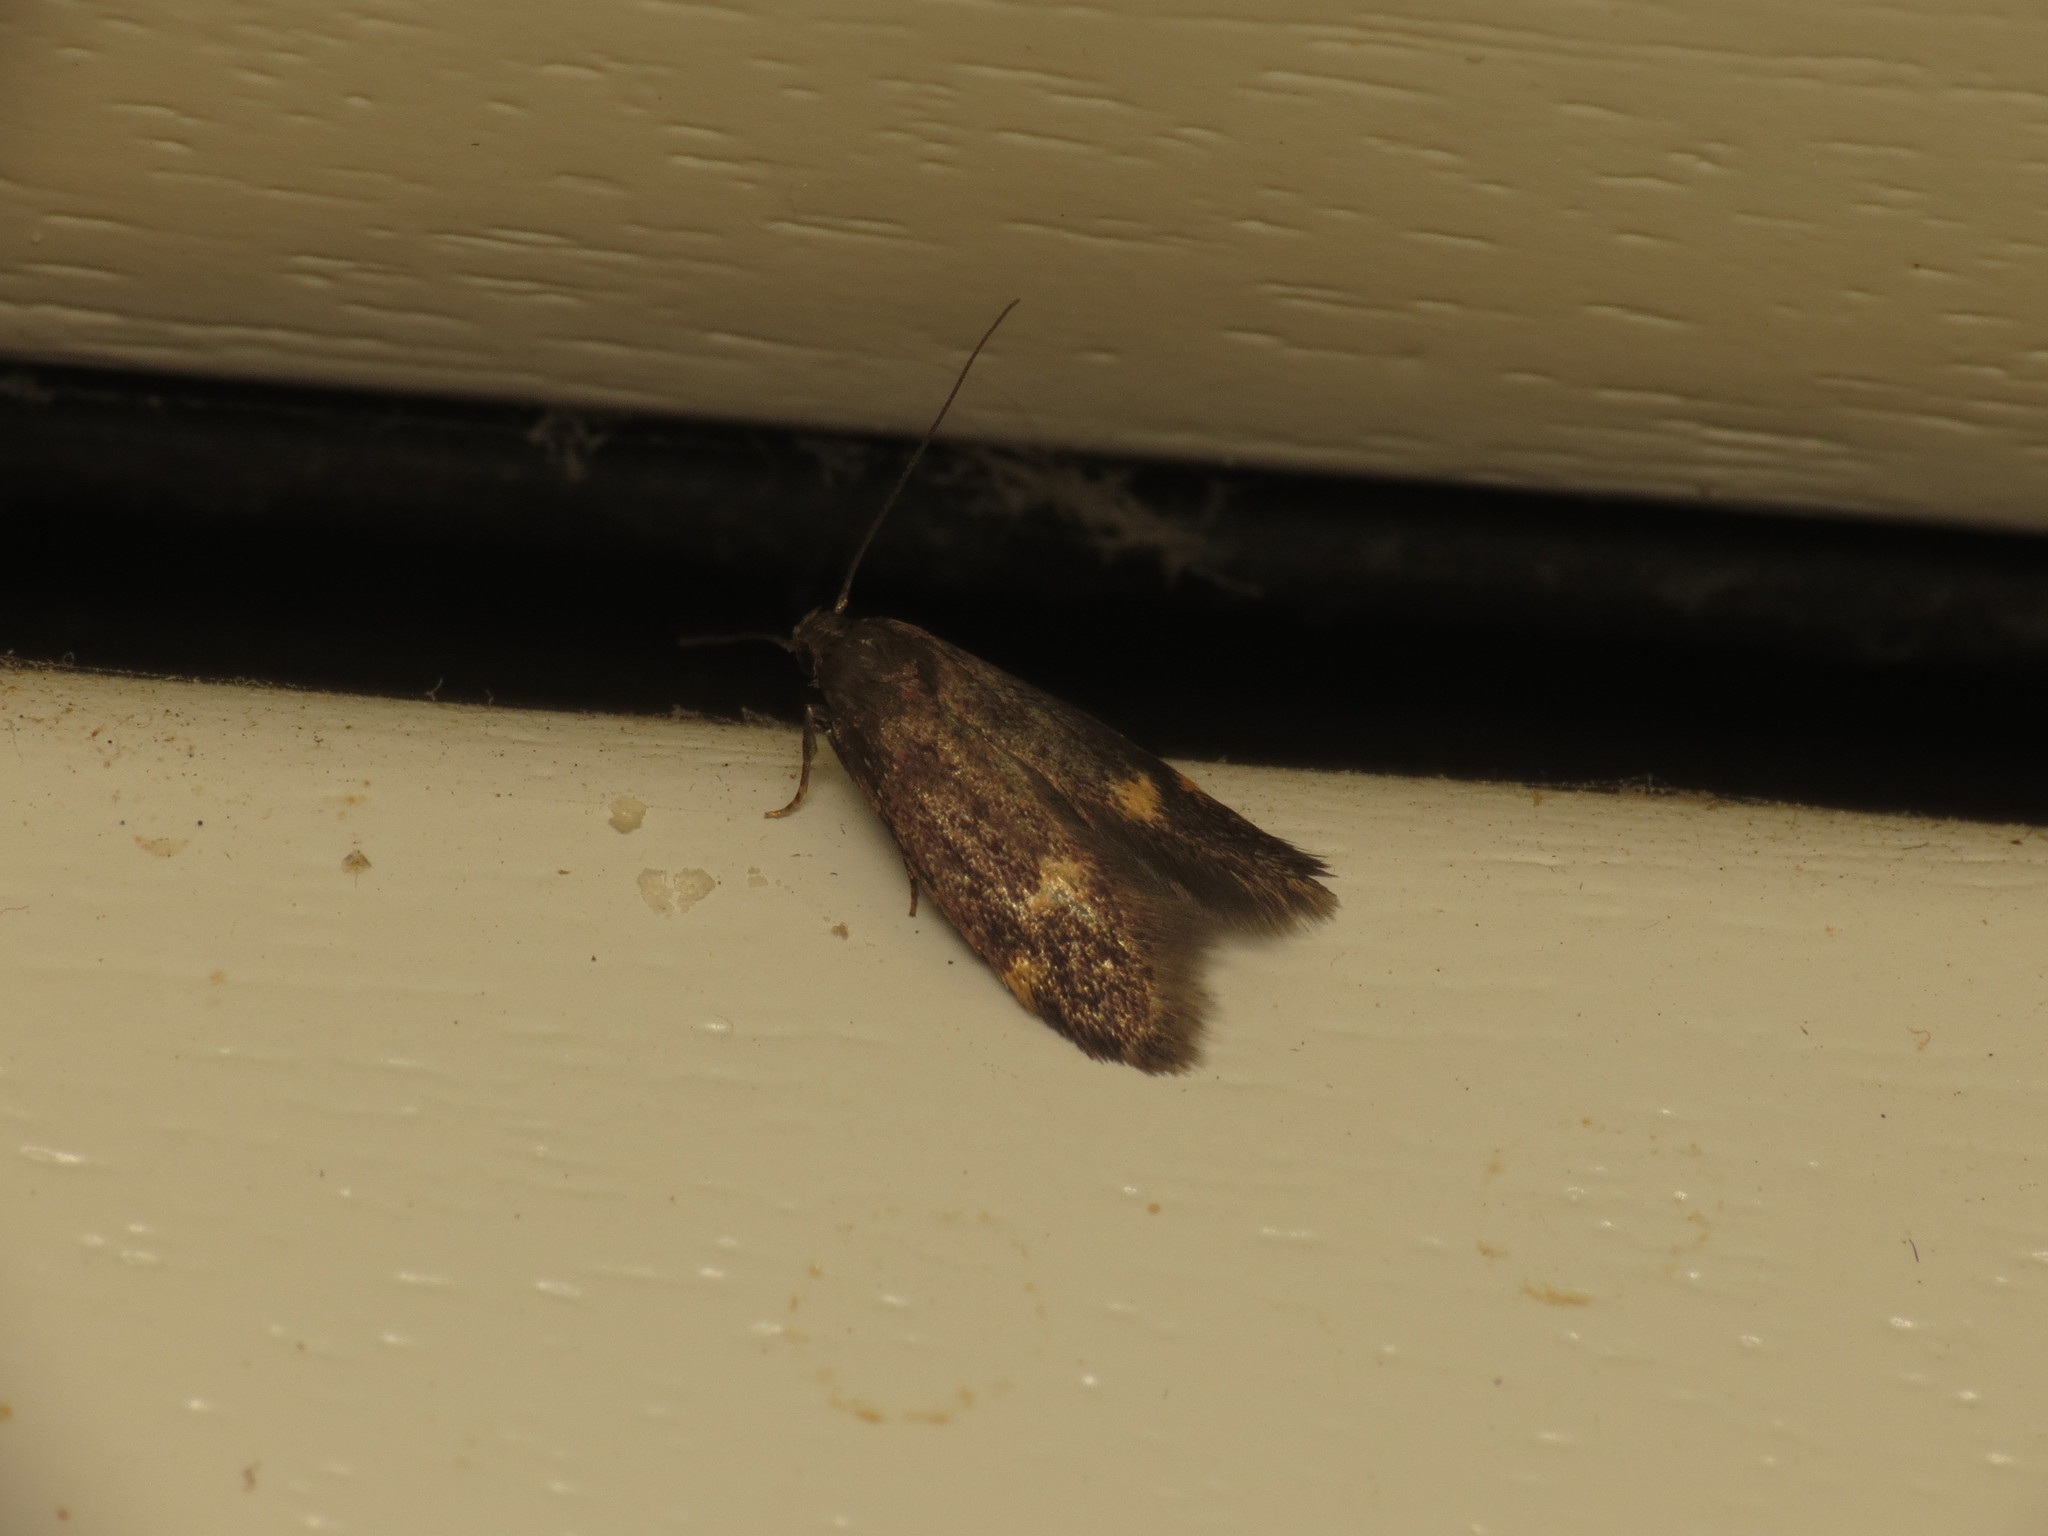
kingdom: Animalia
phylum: Arthropoda
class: Insecta
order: Lepidoptera
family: Oecophoridae
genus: Borkhausenia
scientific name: Borkhausenia minutella
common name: Thatch tubic
